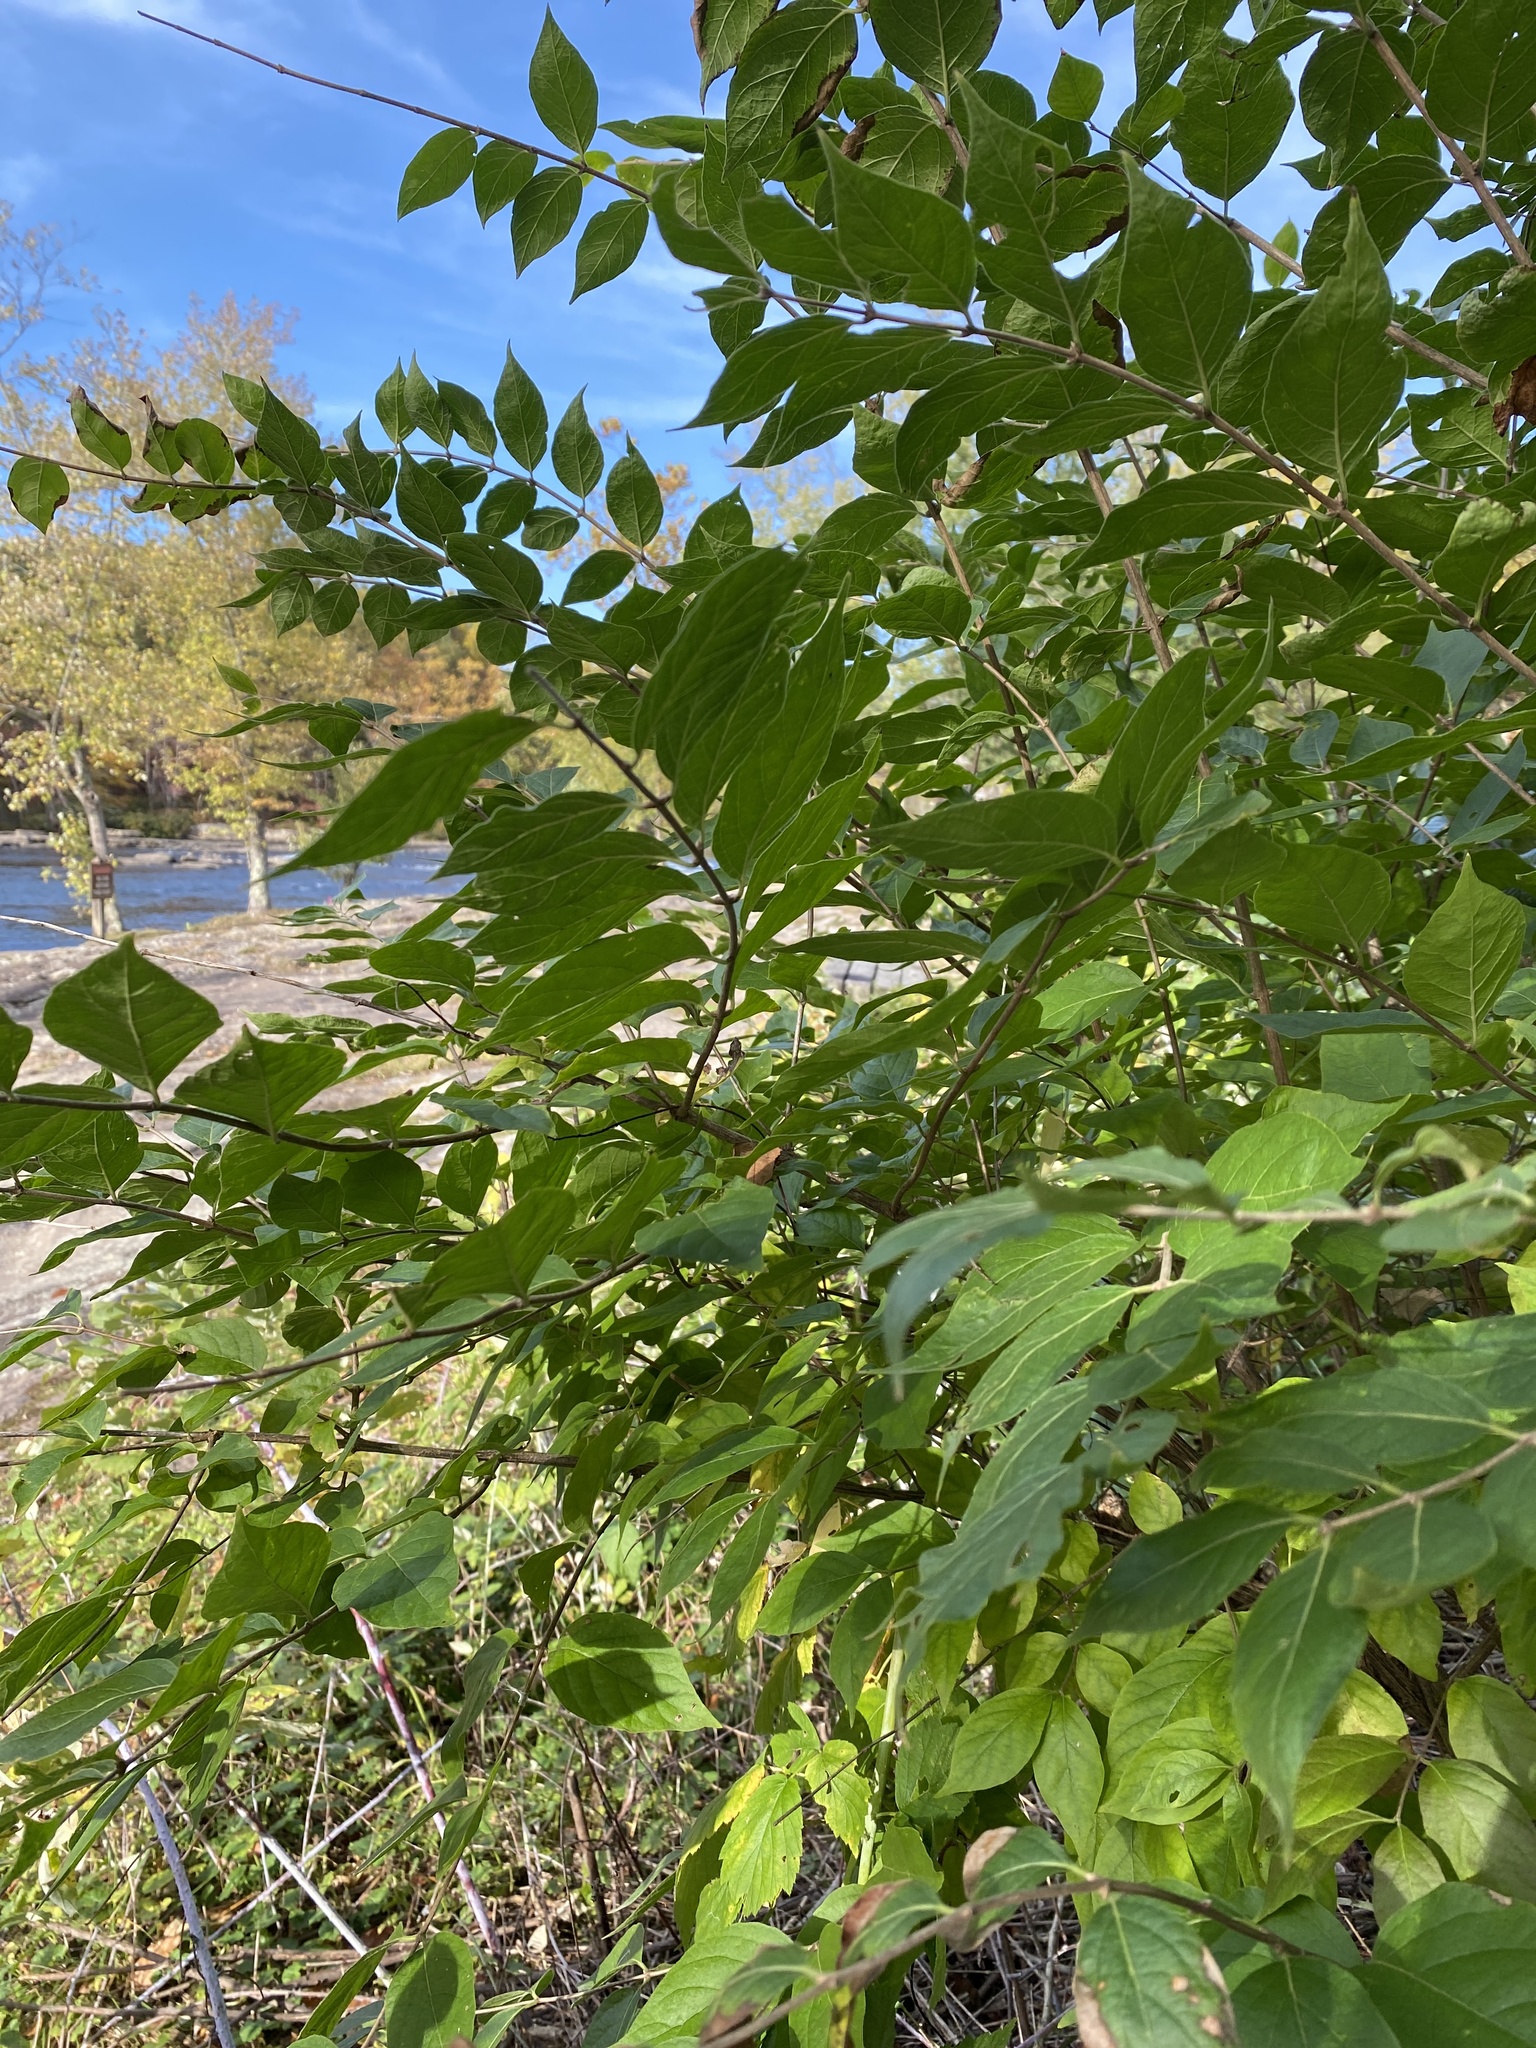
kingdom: Plantae
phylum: Tracheophyta
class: Magnoliopsida
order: Dipsacales
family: Caprifoliaceae
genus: Lonicera
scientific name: Lonicera maackii
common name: Amur honeysuckle
